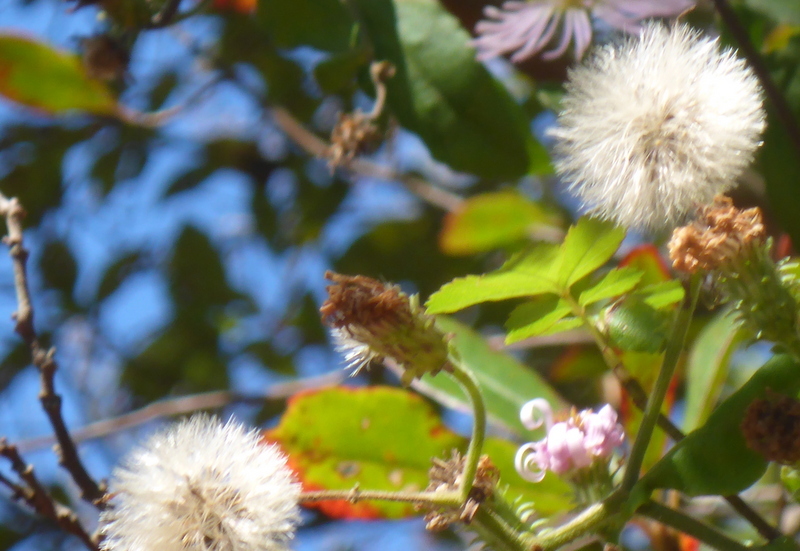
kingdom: Plantae
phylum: Tracheophyta
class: Magnoliopsida
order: Asterales
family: Asteraceae
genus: Ampelaster
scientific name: Ampelaster carolinianus
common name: Climbing aster
